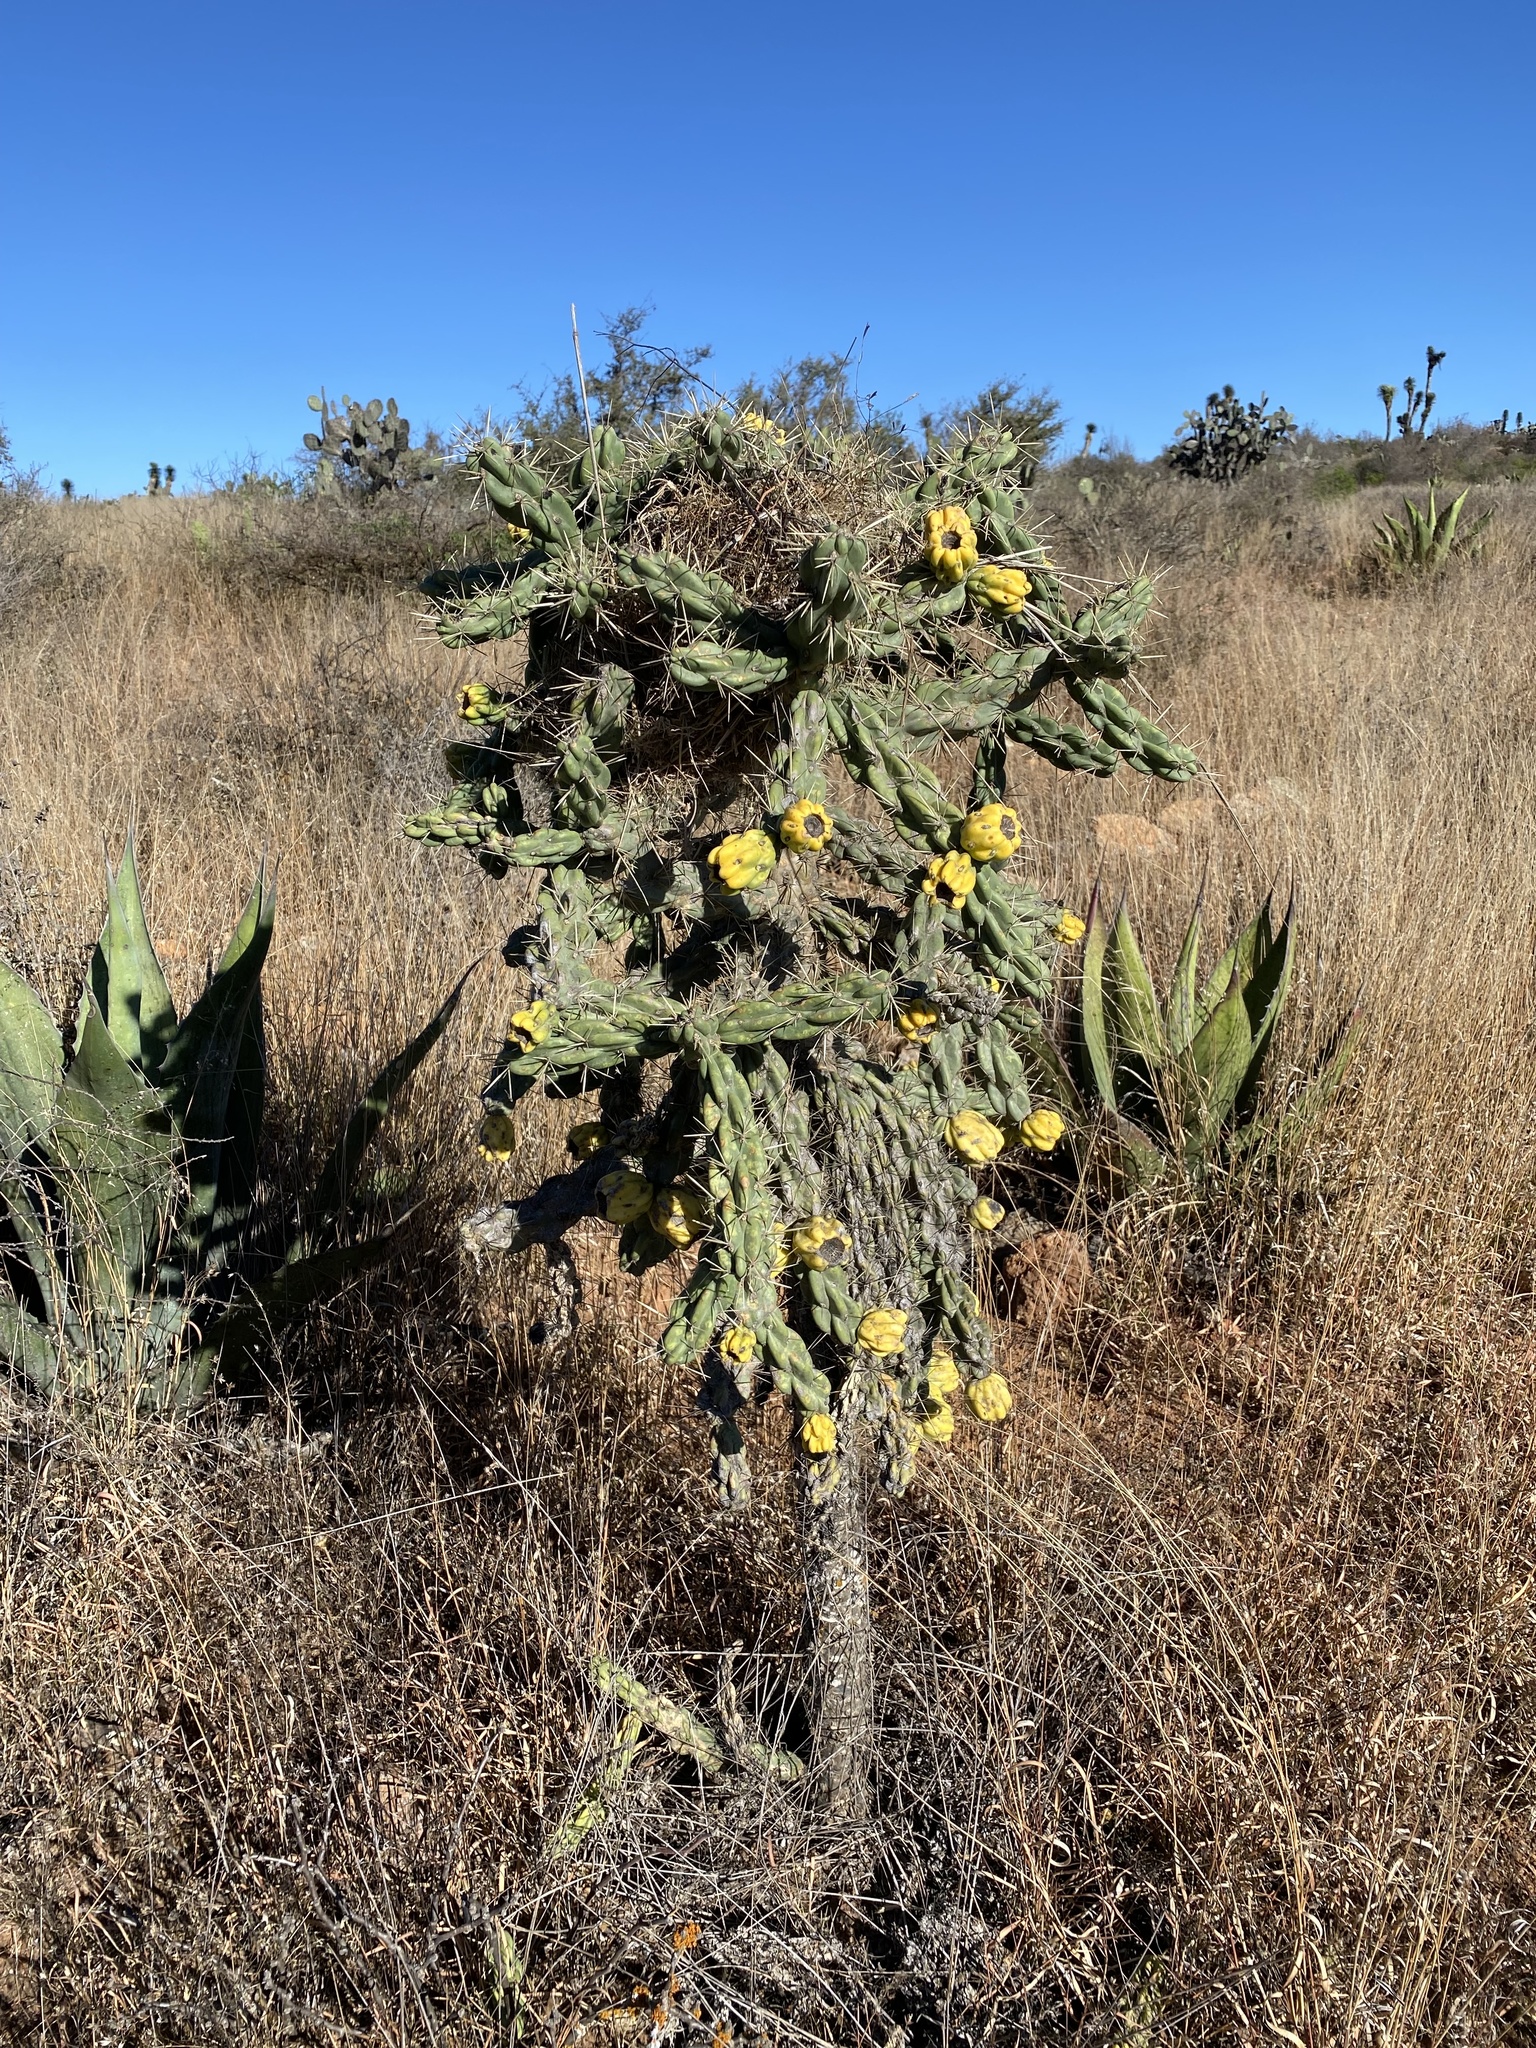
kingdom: Plantae
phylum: Tracheophyta
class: Magnoliopsida
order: Caryophyllales
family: Cactaceae
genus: Cylindropuntia
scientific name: Cylindropuntia imbricata
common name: Candelabrum cactus
